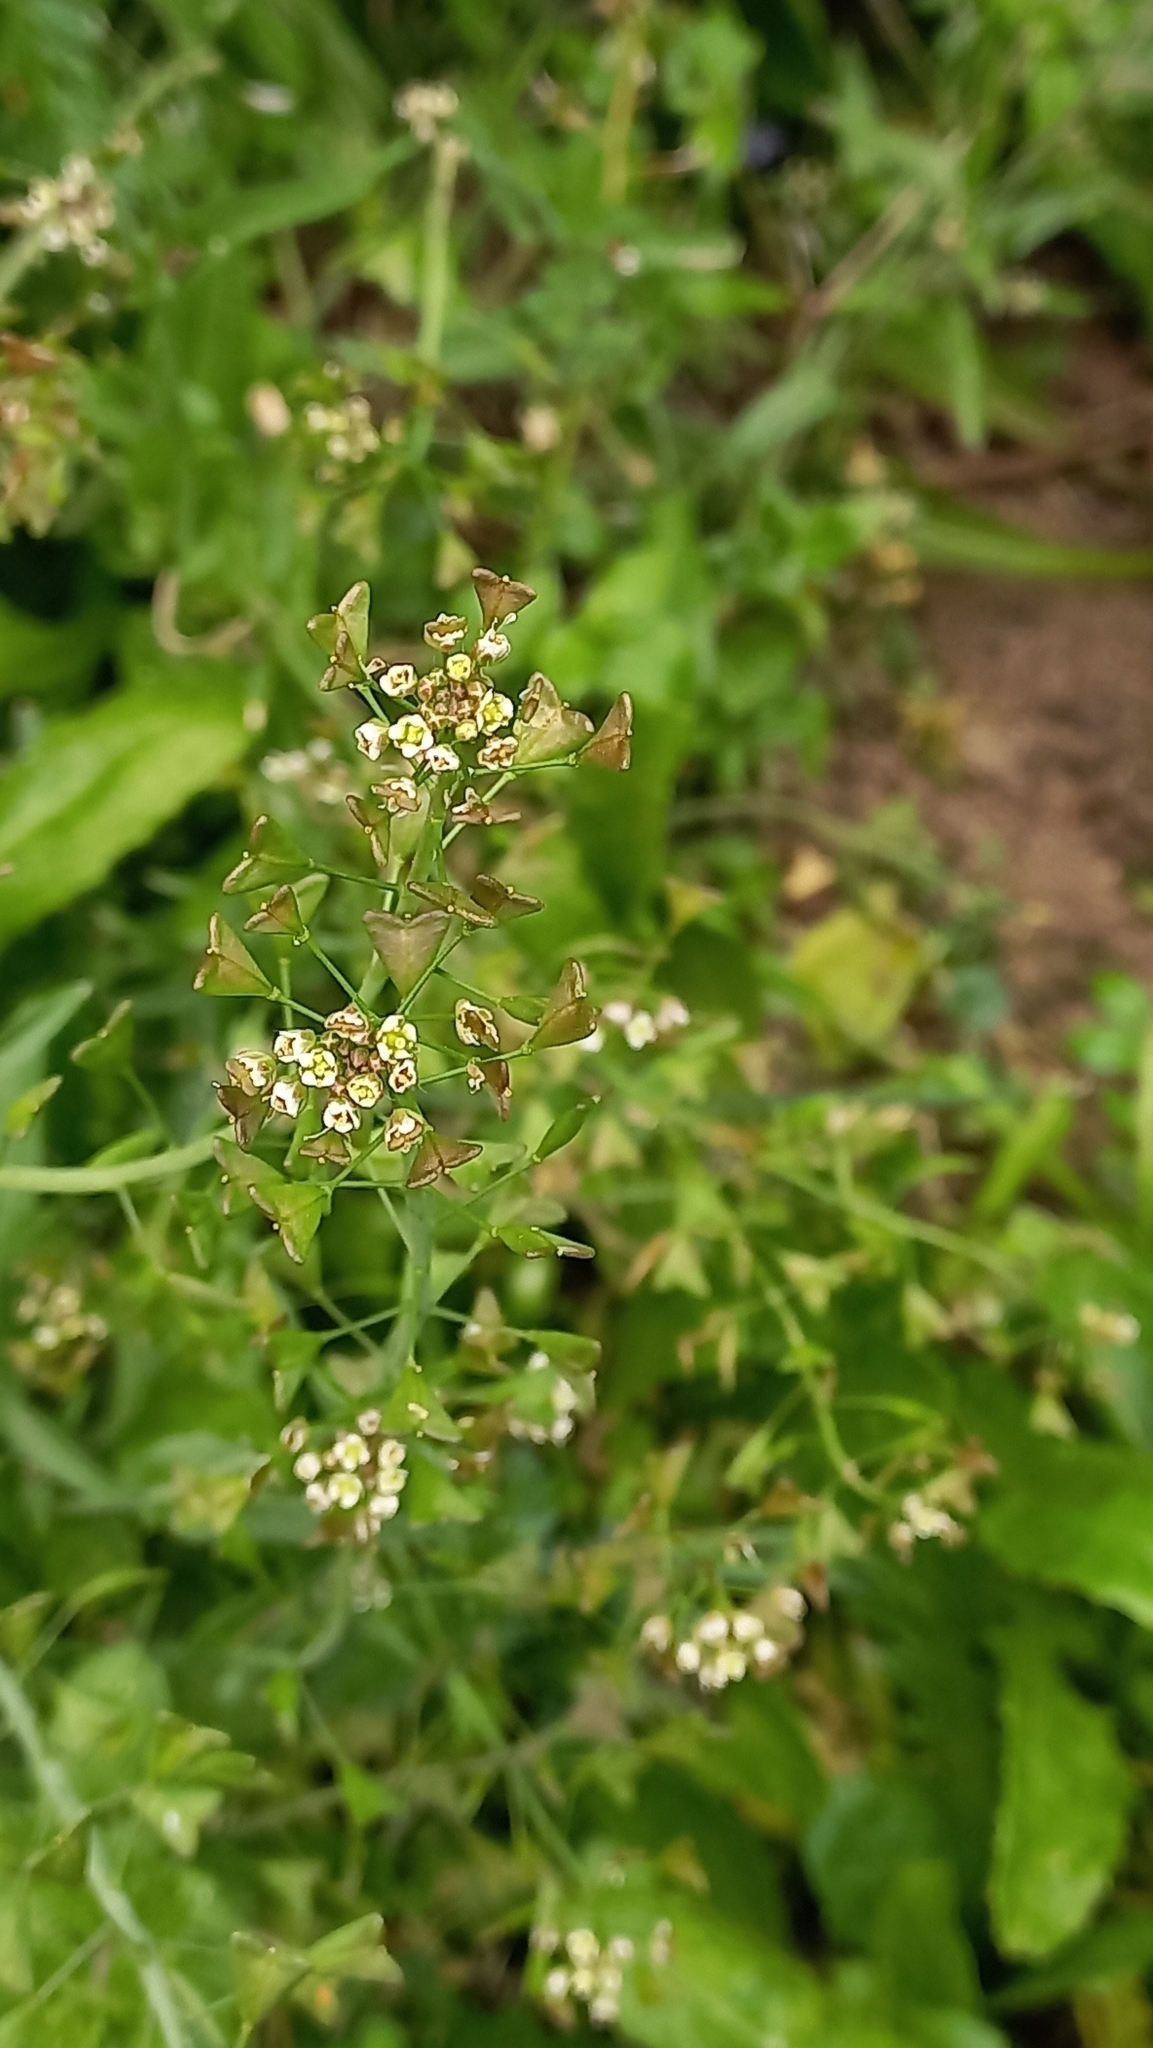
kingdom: Plantae
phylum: Tracheophyta
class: Magnoliopsida
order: Brassicales
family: Brassicaceae
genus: Capsella
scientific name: Capsella bursa-pastoris
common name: Shepherd's purse
